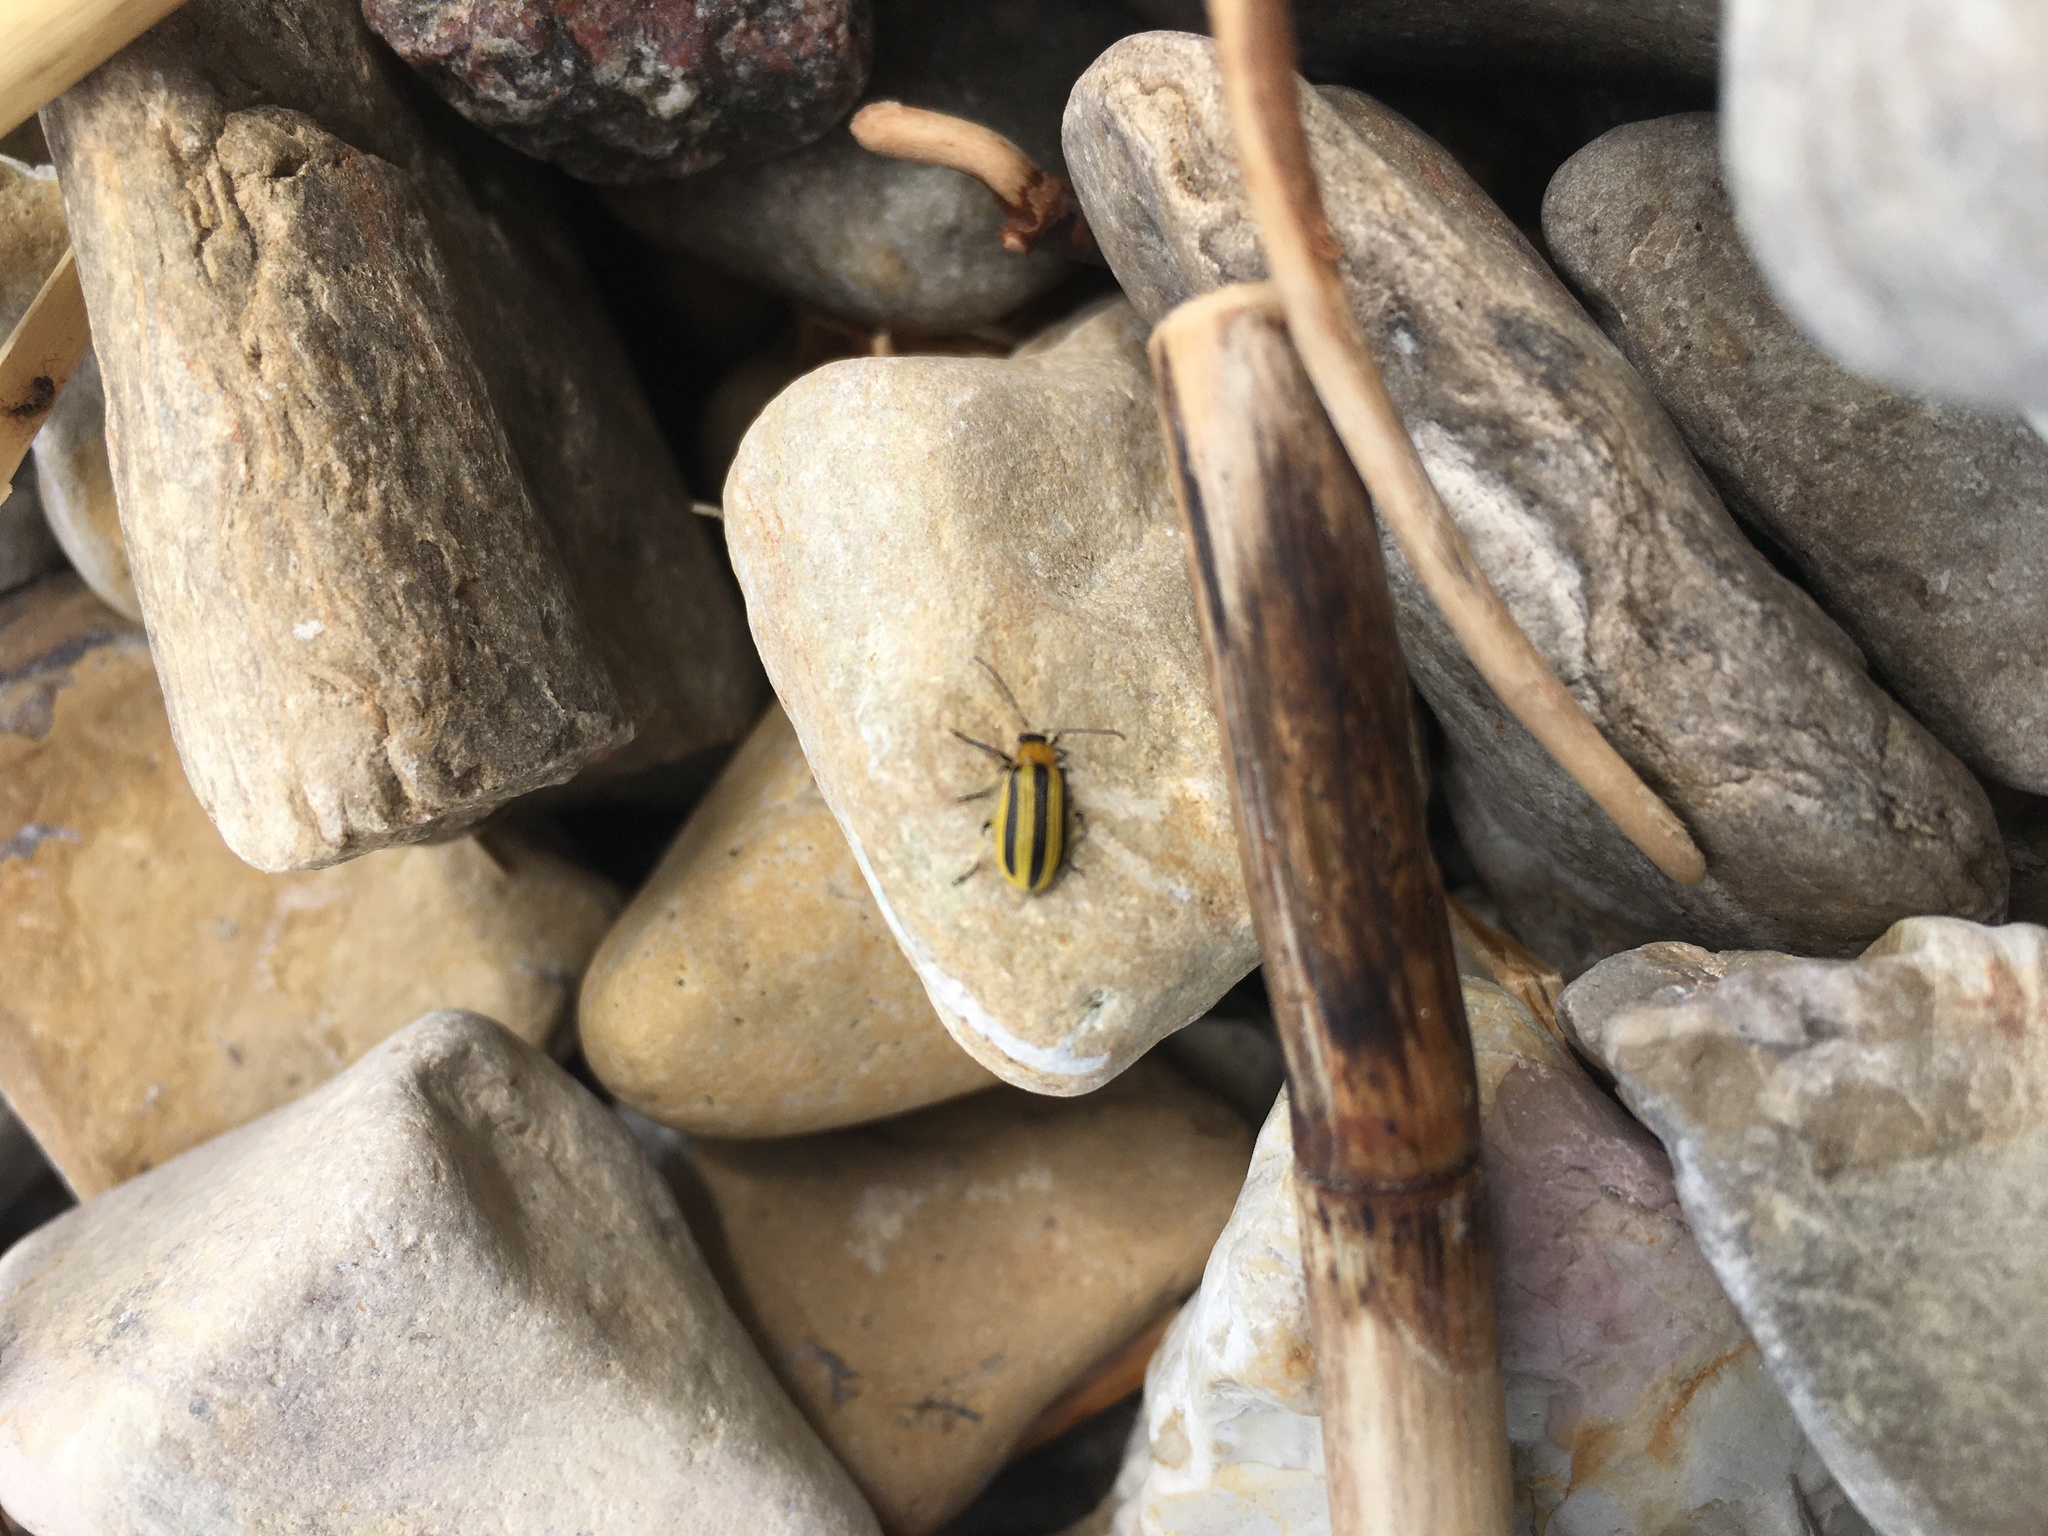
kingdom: Animalia
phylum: Arthropoda
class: Insecta
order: Coleoptera
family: Chrysomelidae
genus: Acalymma
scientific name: Acalymma vittatum
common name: Striped cucumber beetle
